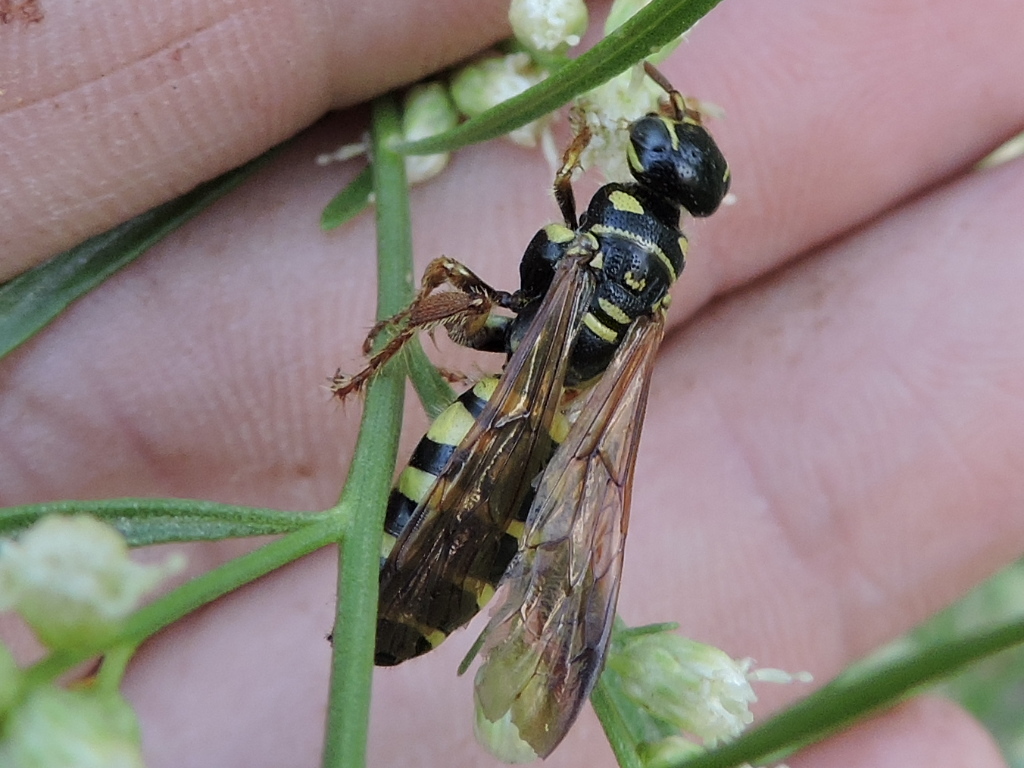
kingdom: Animalia
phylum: Arthropoda
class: Insecta
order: Hymenoptera
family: Tiphiidae
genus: Myzinum
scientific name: Myzinum quinquecinctum
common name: Five-banded thynnid wasp
